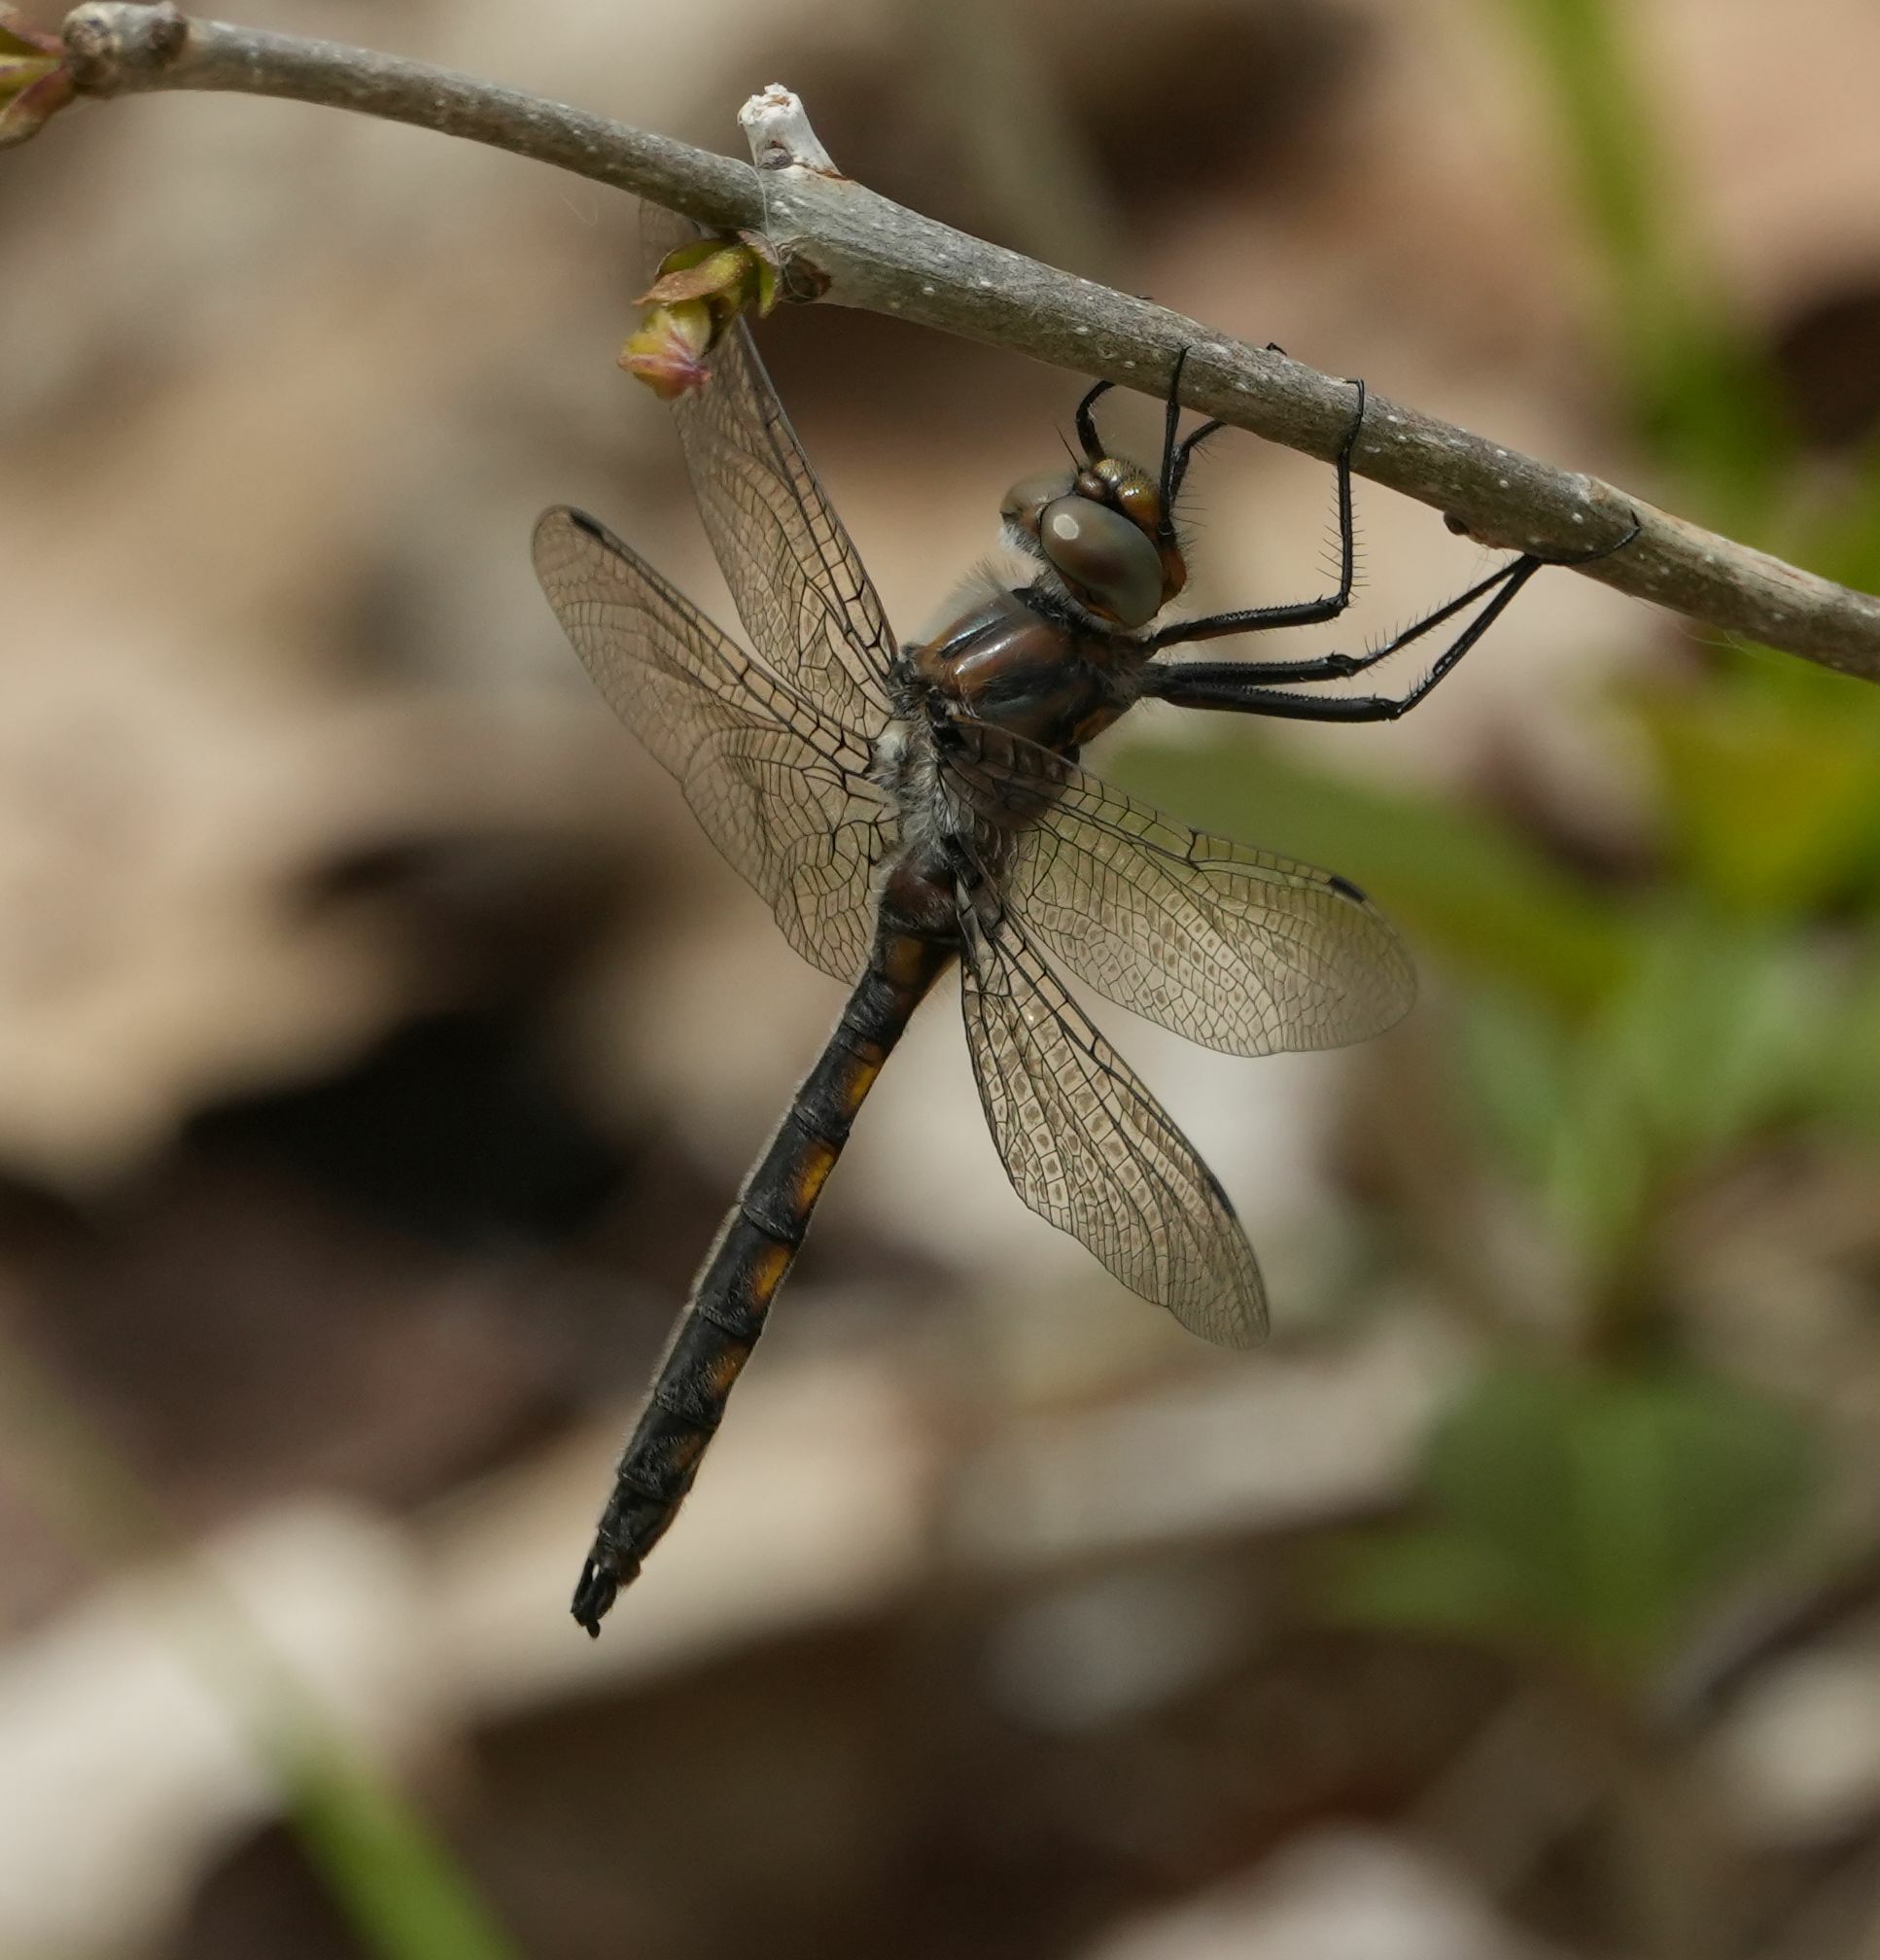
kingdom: Animalia
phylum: Arthropoda
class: Insecta
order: Odonata
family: Corduliidae
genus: Epitheca
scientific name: Epitheca canis
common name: Beaverpond baskettail
